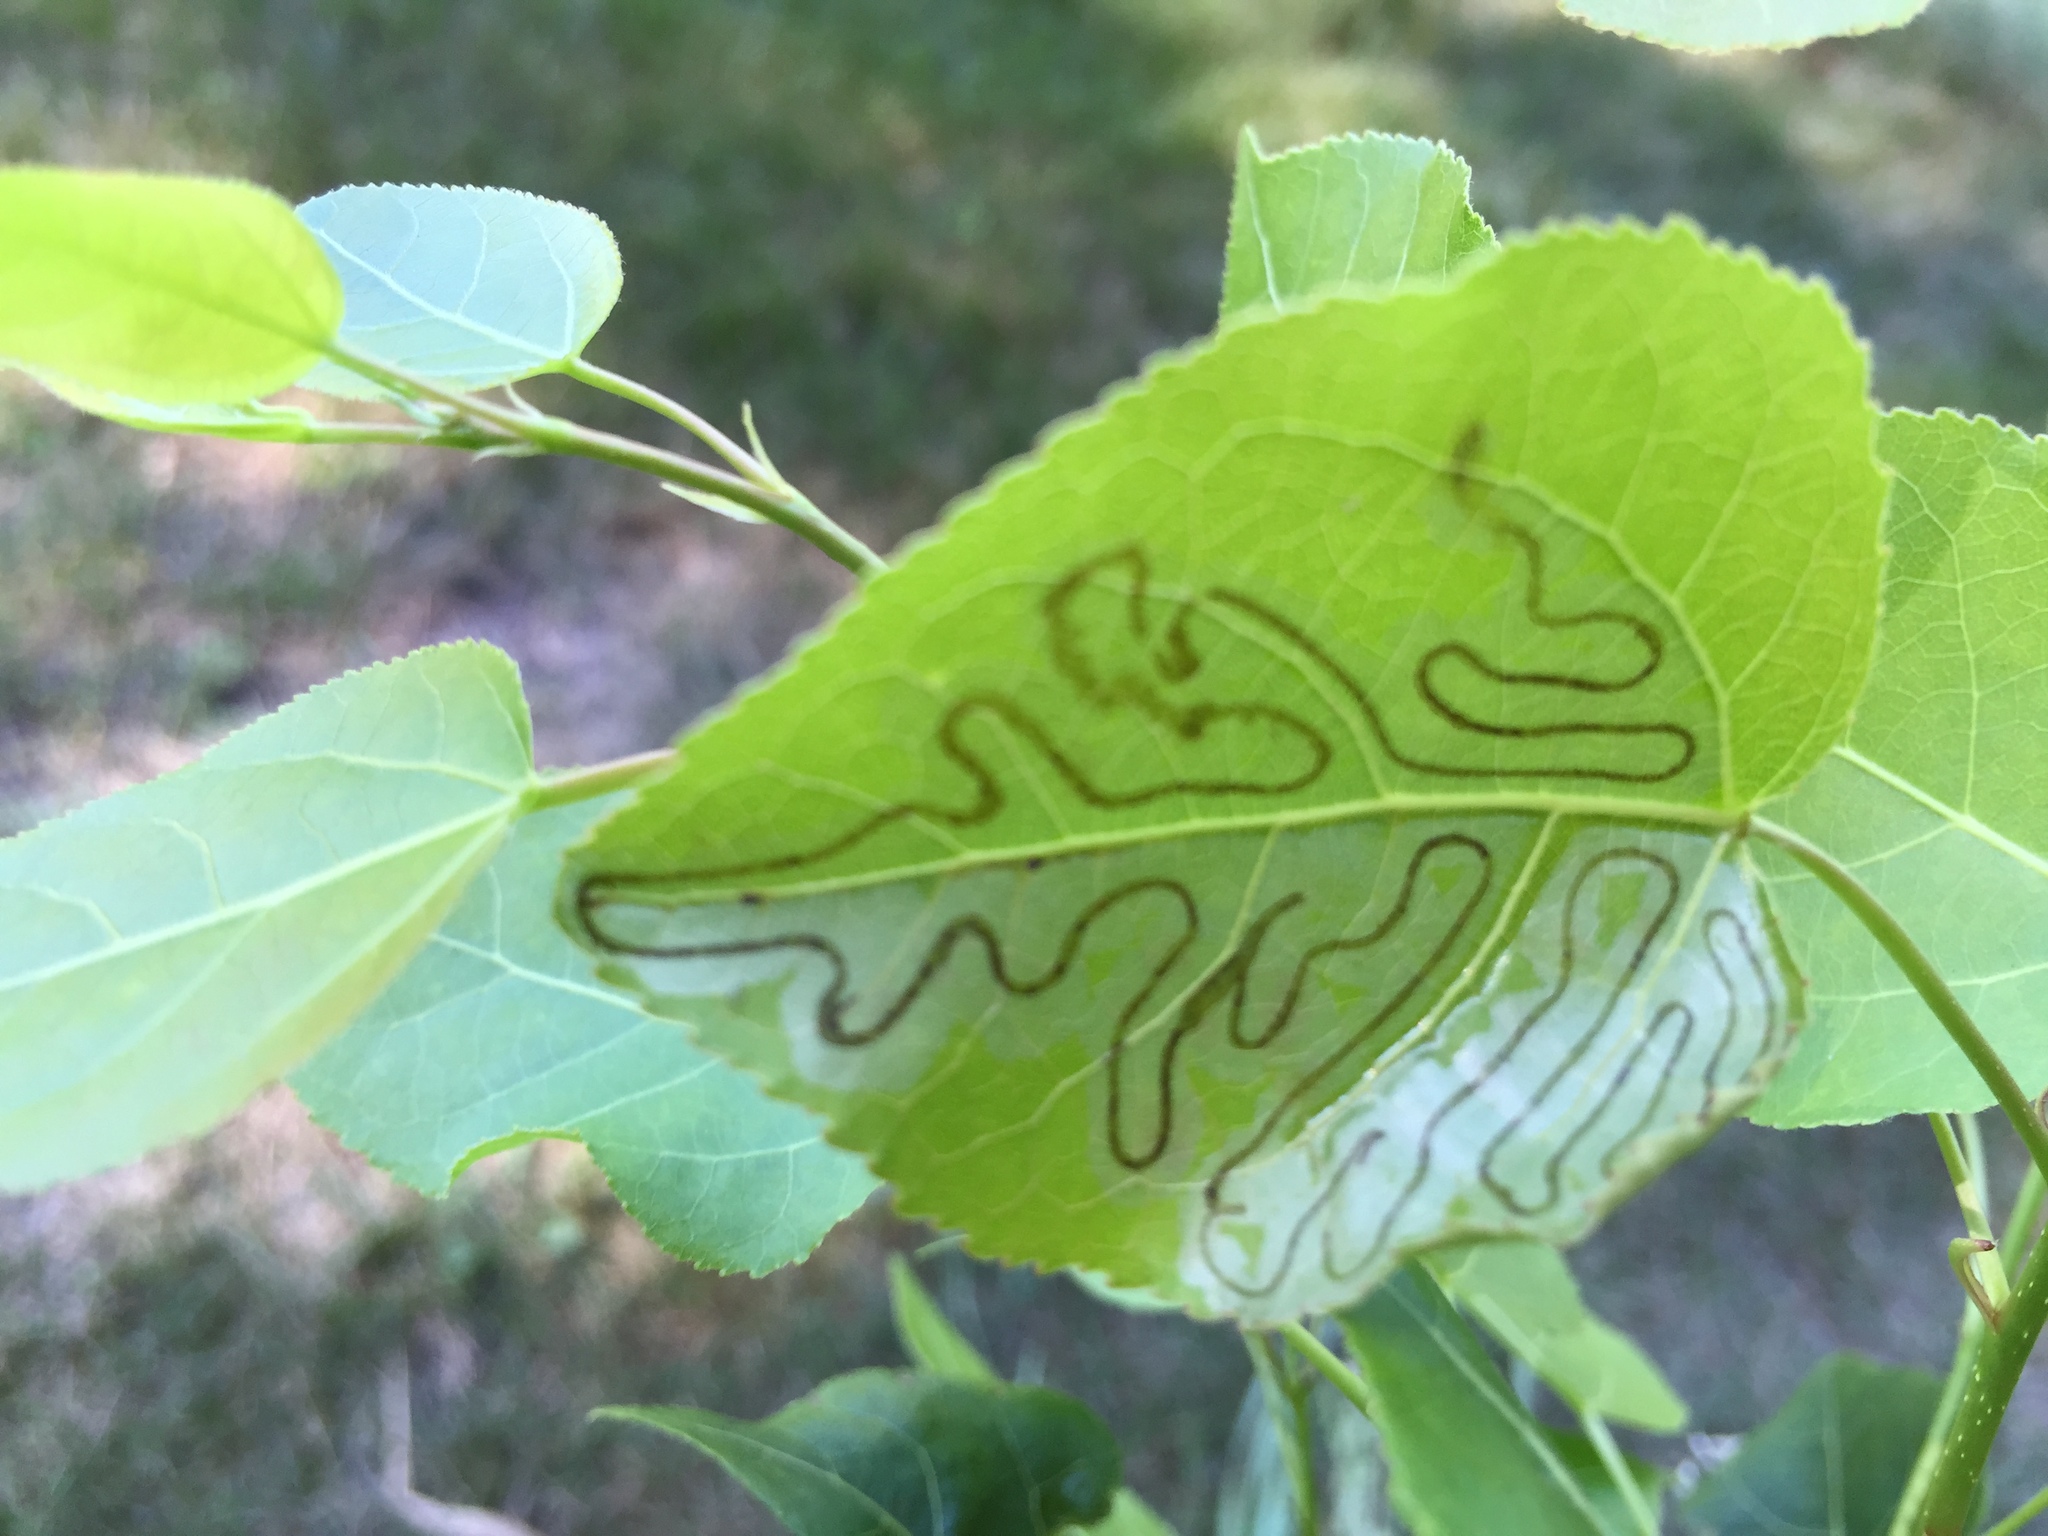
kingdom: Animalia
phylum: Arthropoda
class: Insecta
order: Lepidoptera
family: Gracillariidae
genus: Phyllocnistis
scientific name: Phyllocnistis populiella
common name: Aspen serpentine leafminer moth
